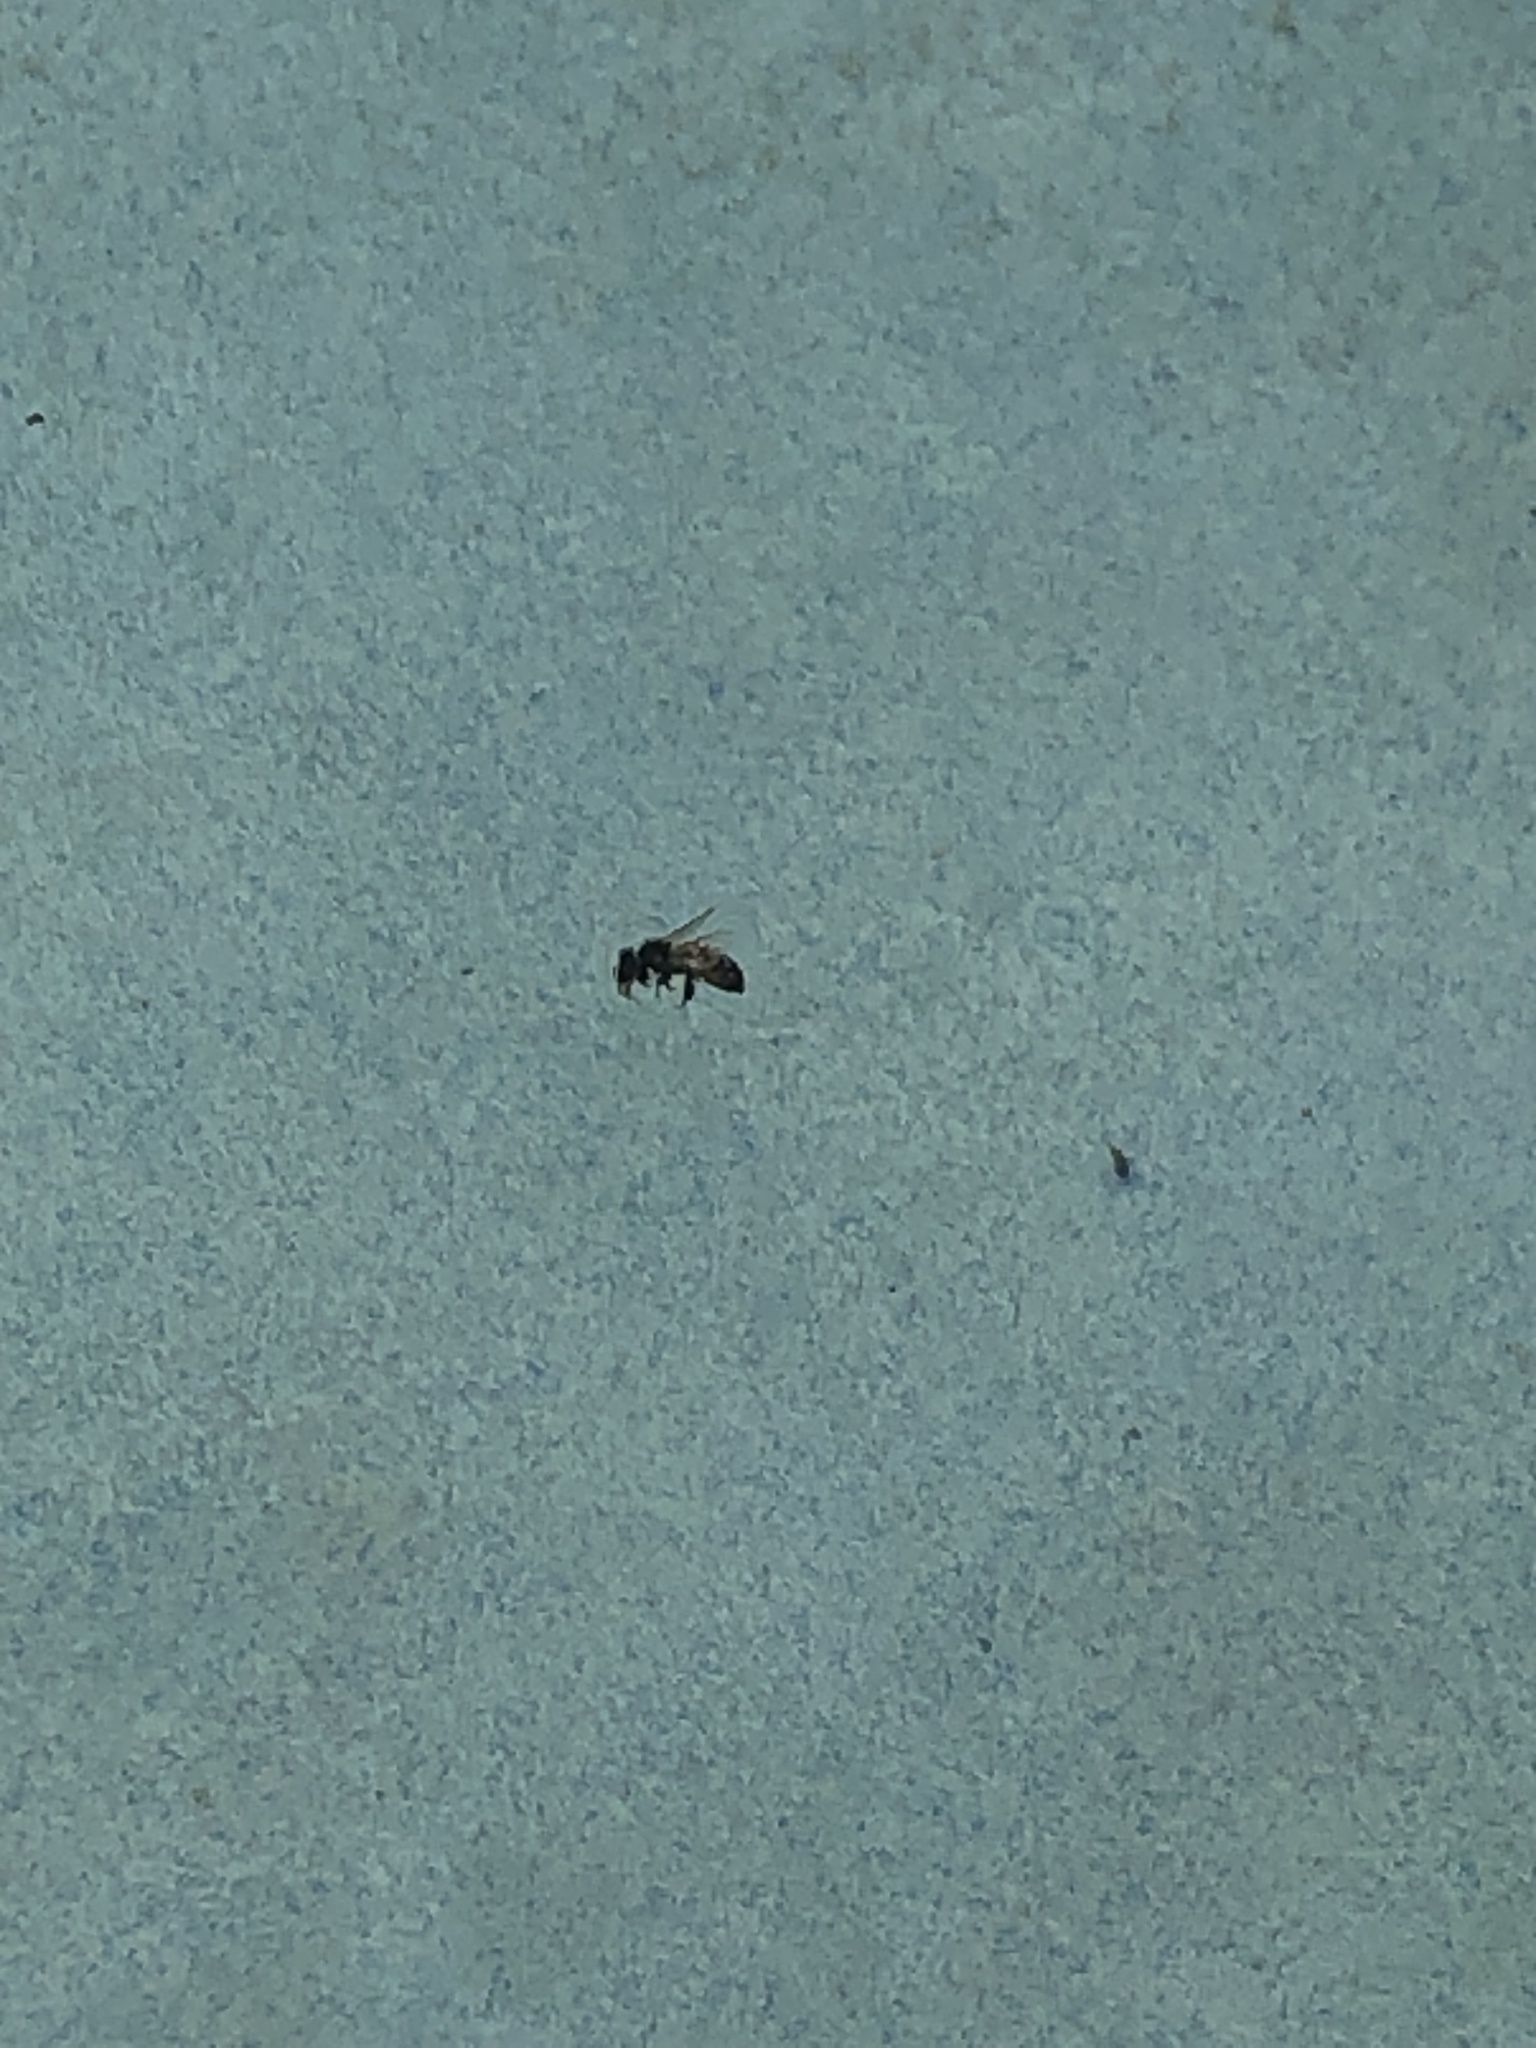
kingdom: Animalia
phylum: Arthropoda
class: Insecta
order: Hymenoptera
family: Apidae
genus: Apis
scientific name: Apis mellifera
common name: Honey bee
